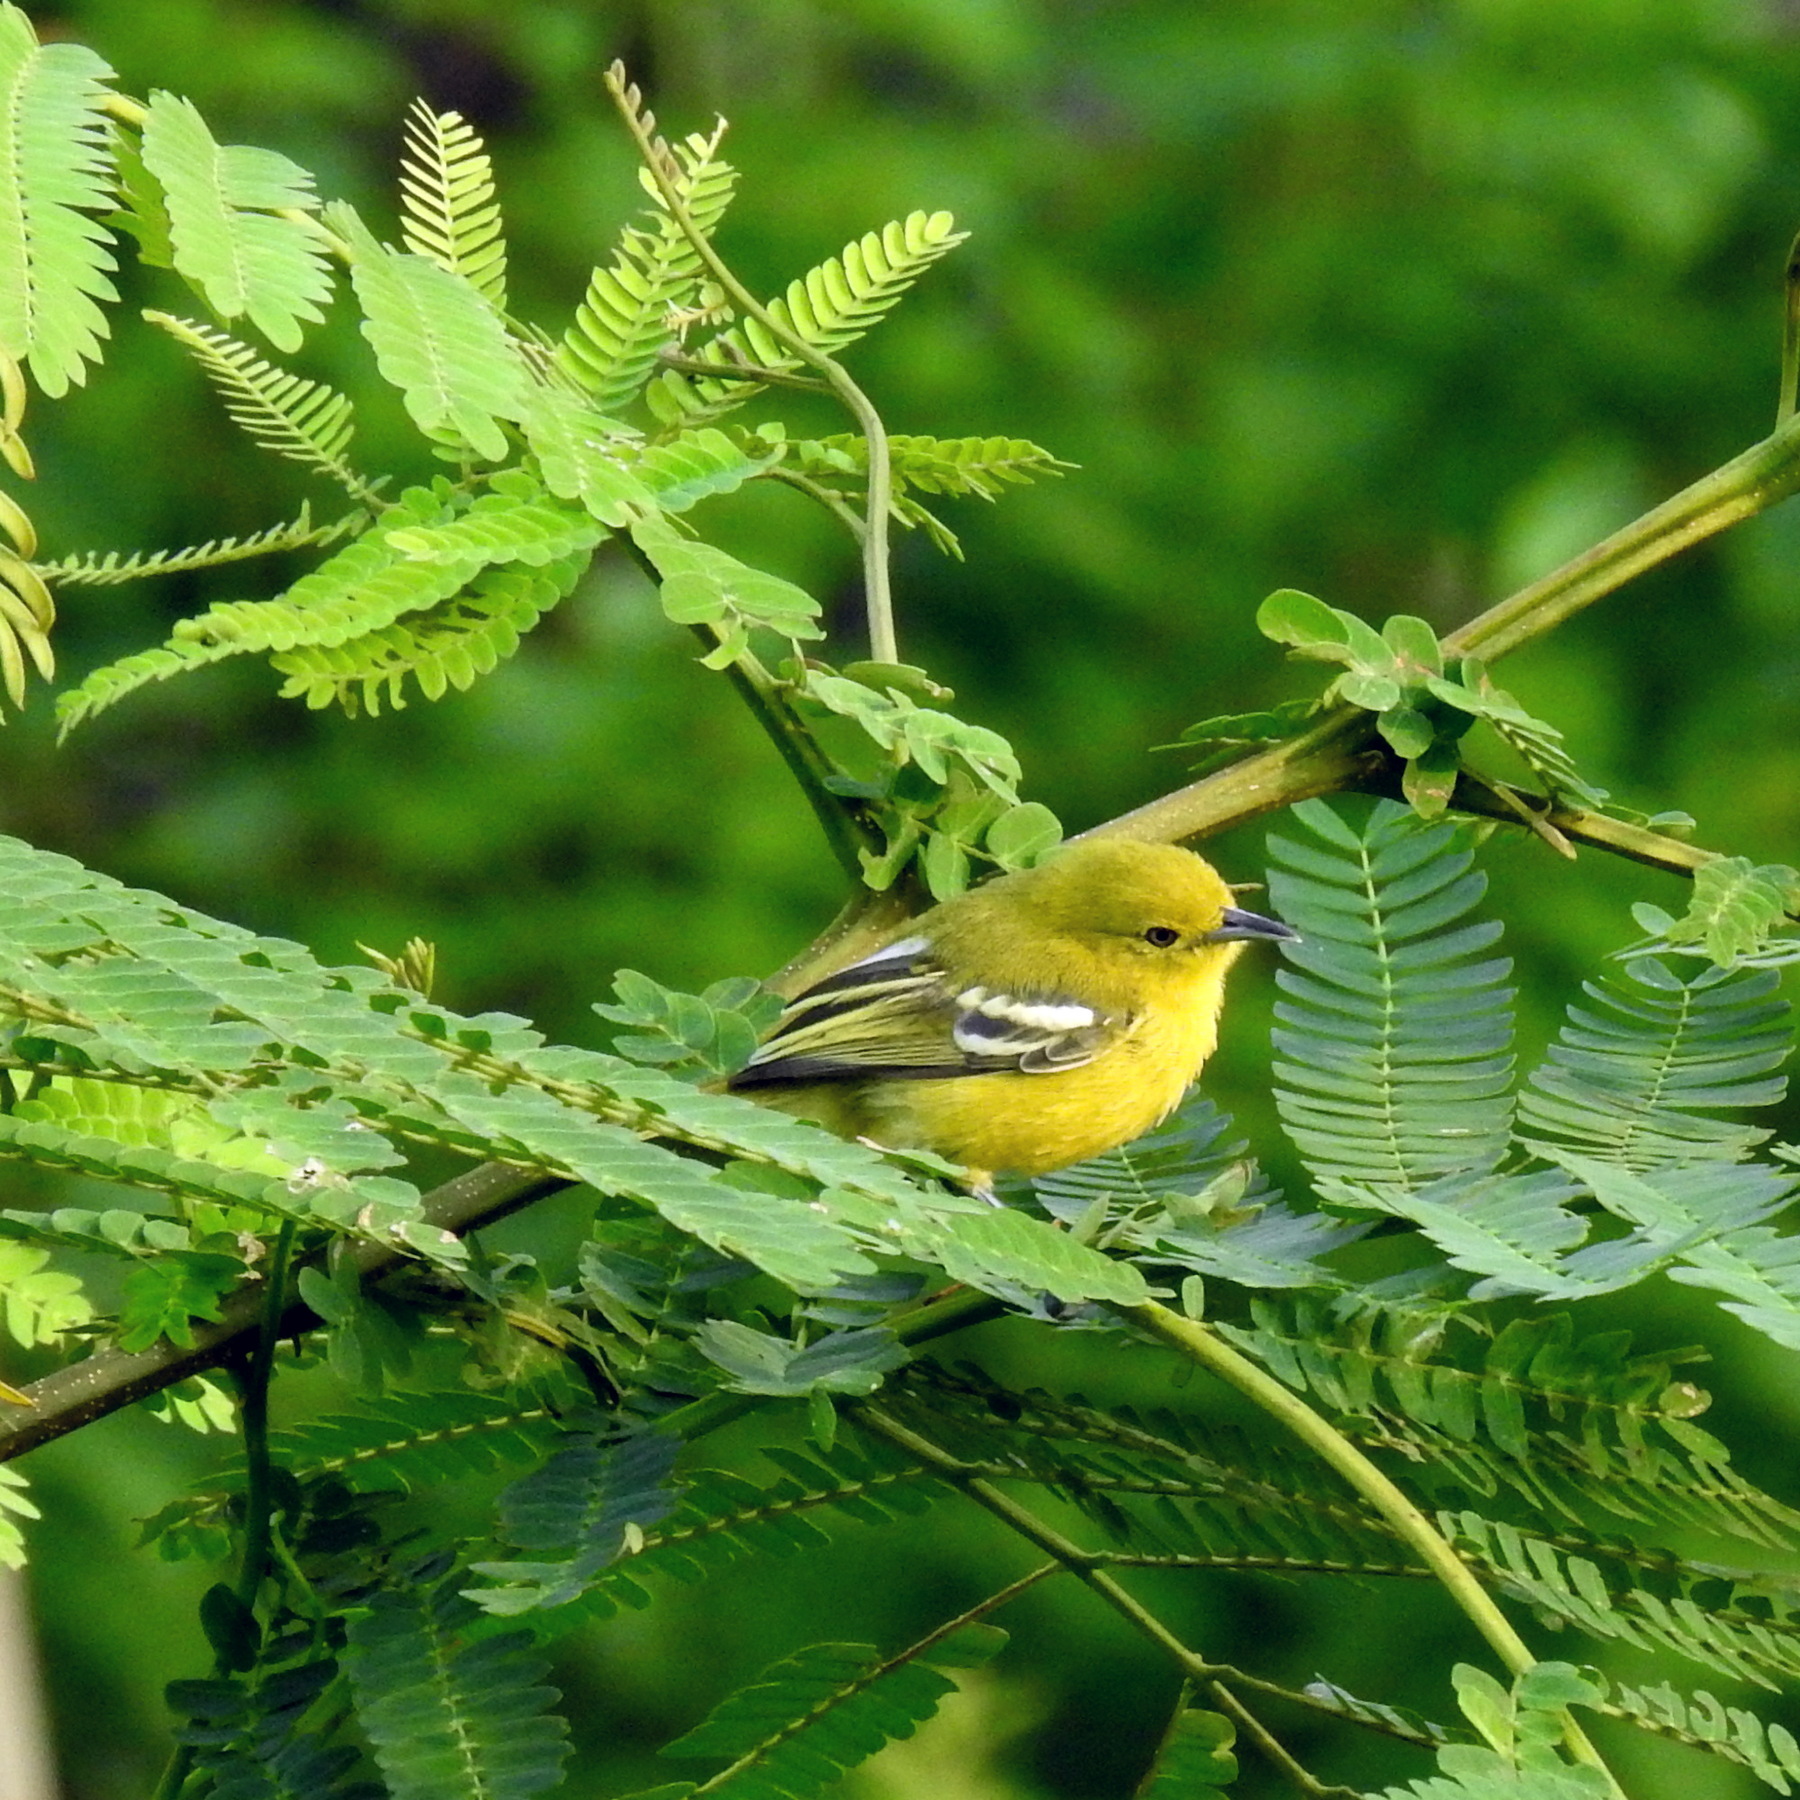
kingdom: Animalia
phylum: Chordata
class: Aves
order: Passeriformes
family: Aegithinidae
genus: Aegithina
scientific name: Aegithina tiphia
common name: Common iora
